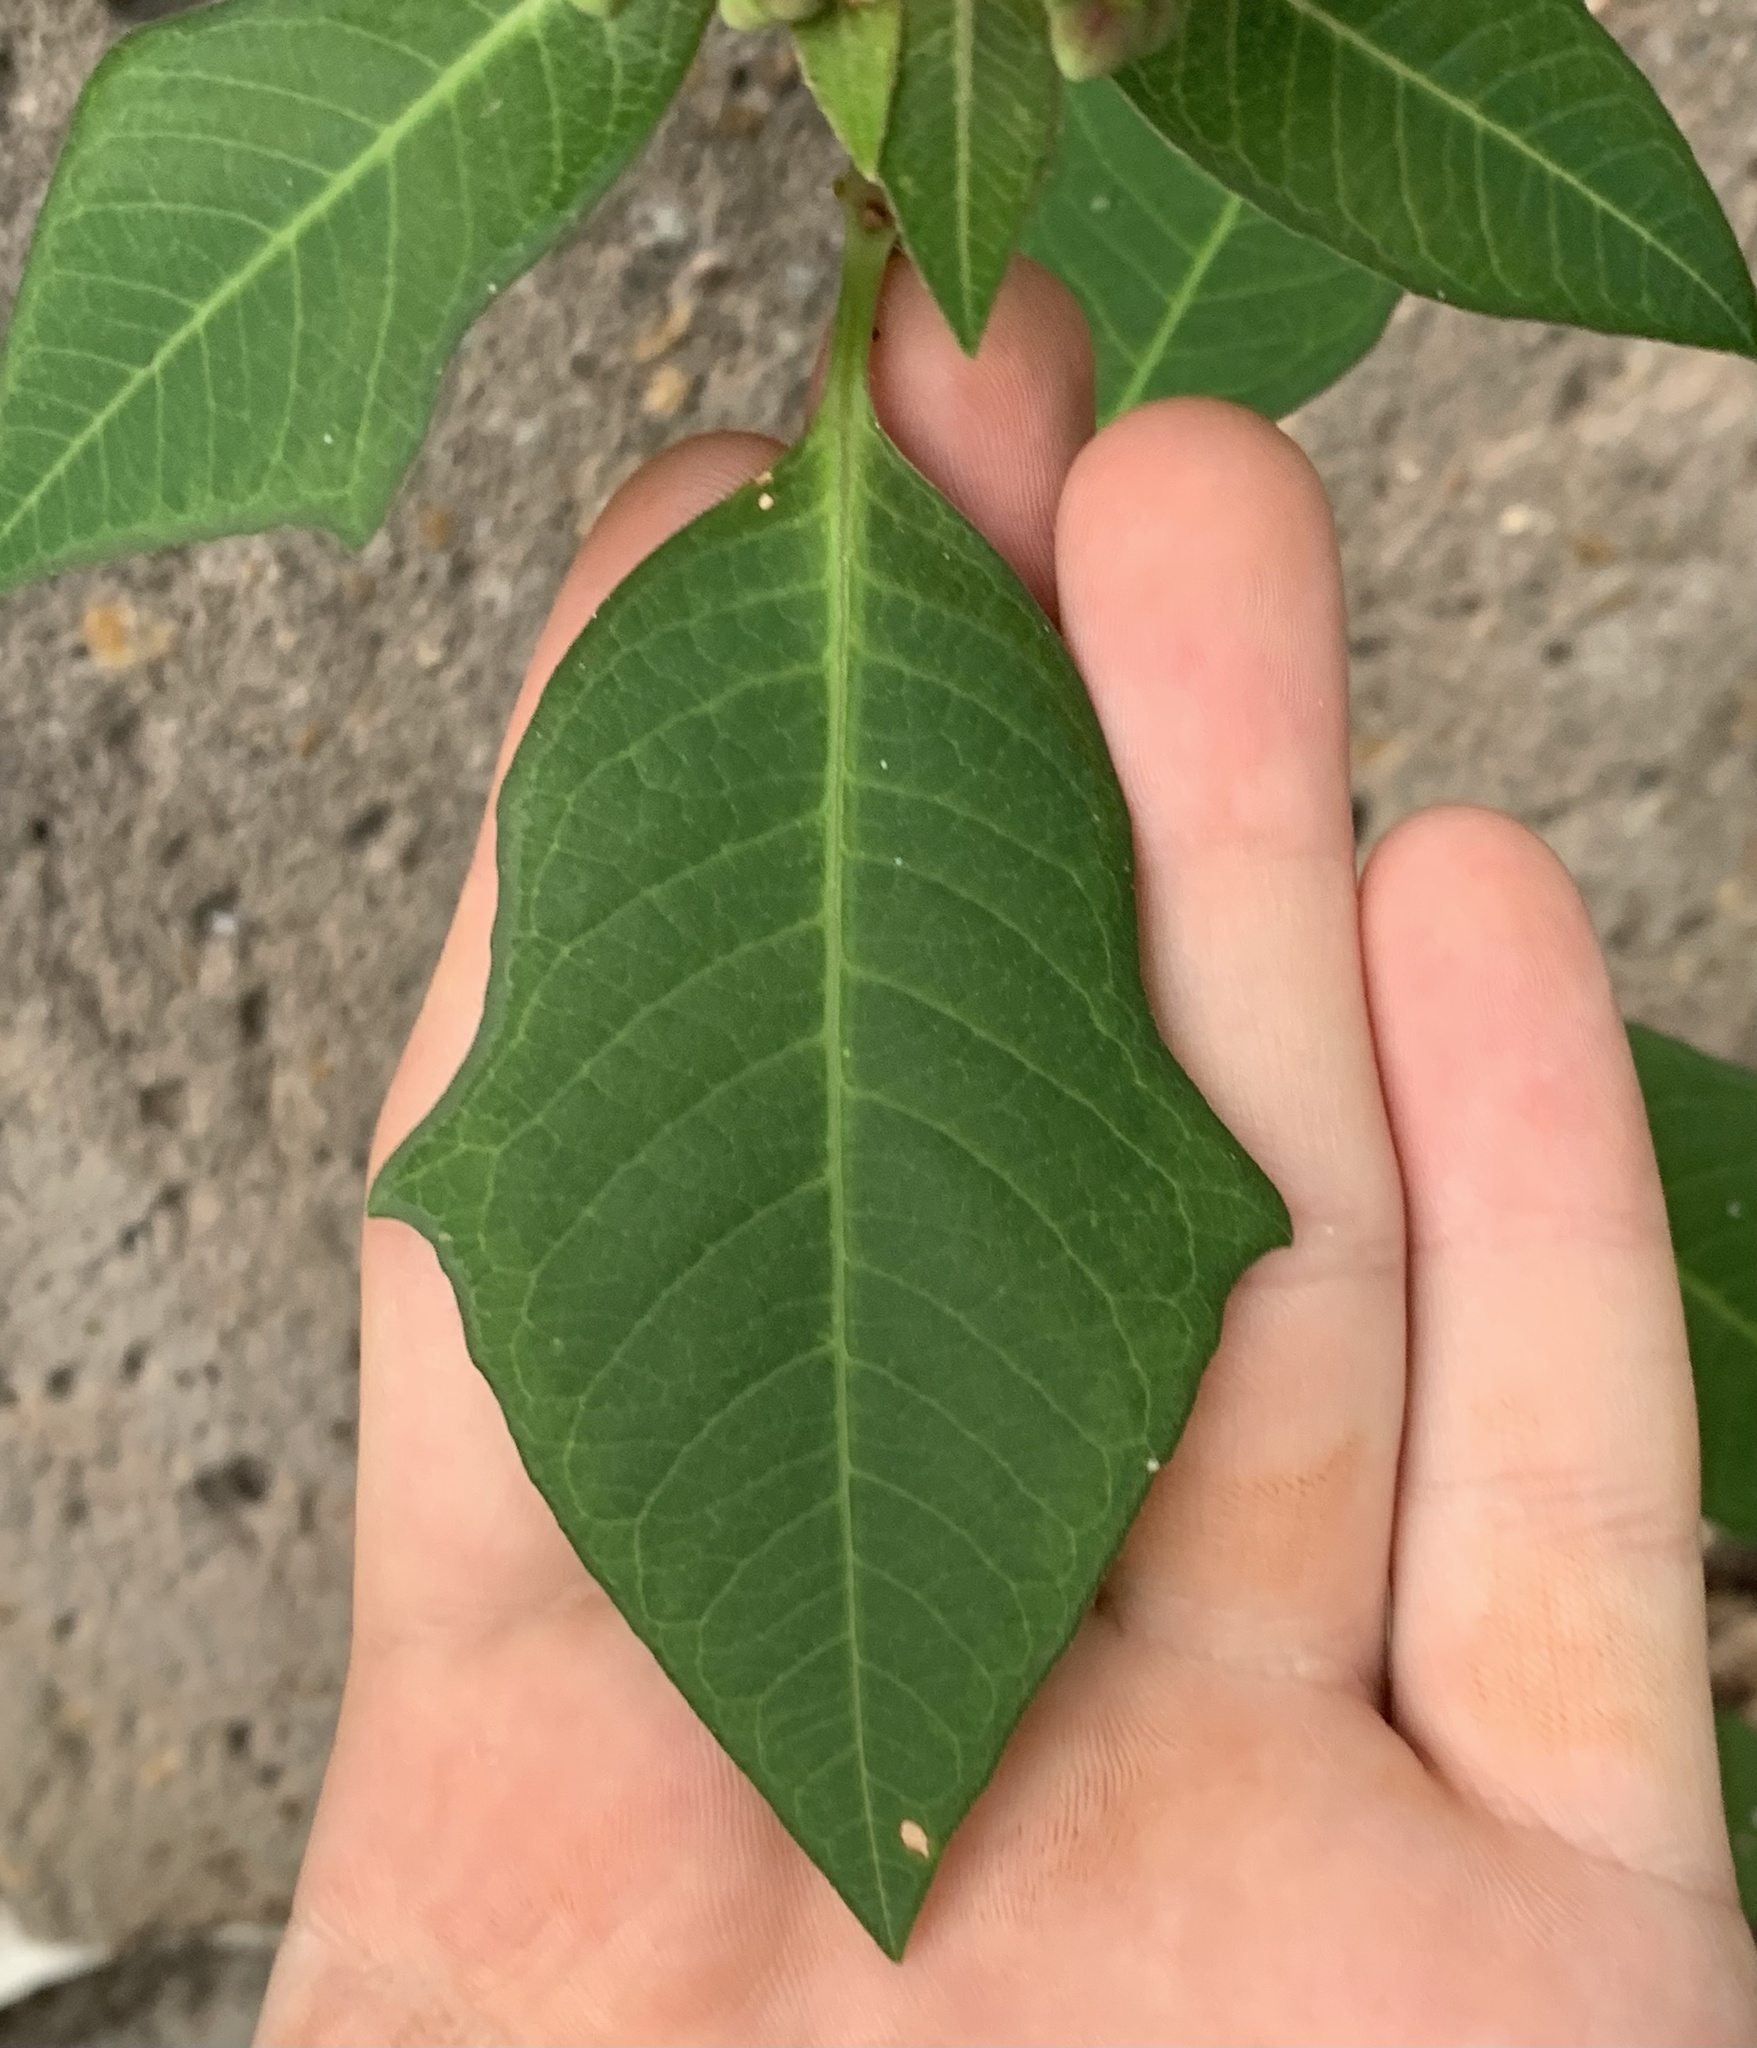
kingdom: Plantae
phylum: Tracheophyta
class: Magnoliopsida
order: Malpighiales
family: Euphorbiaceae
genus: Euphorbia
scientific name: Euphorbia heterophylla
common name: Mexican fireplant
